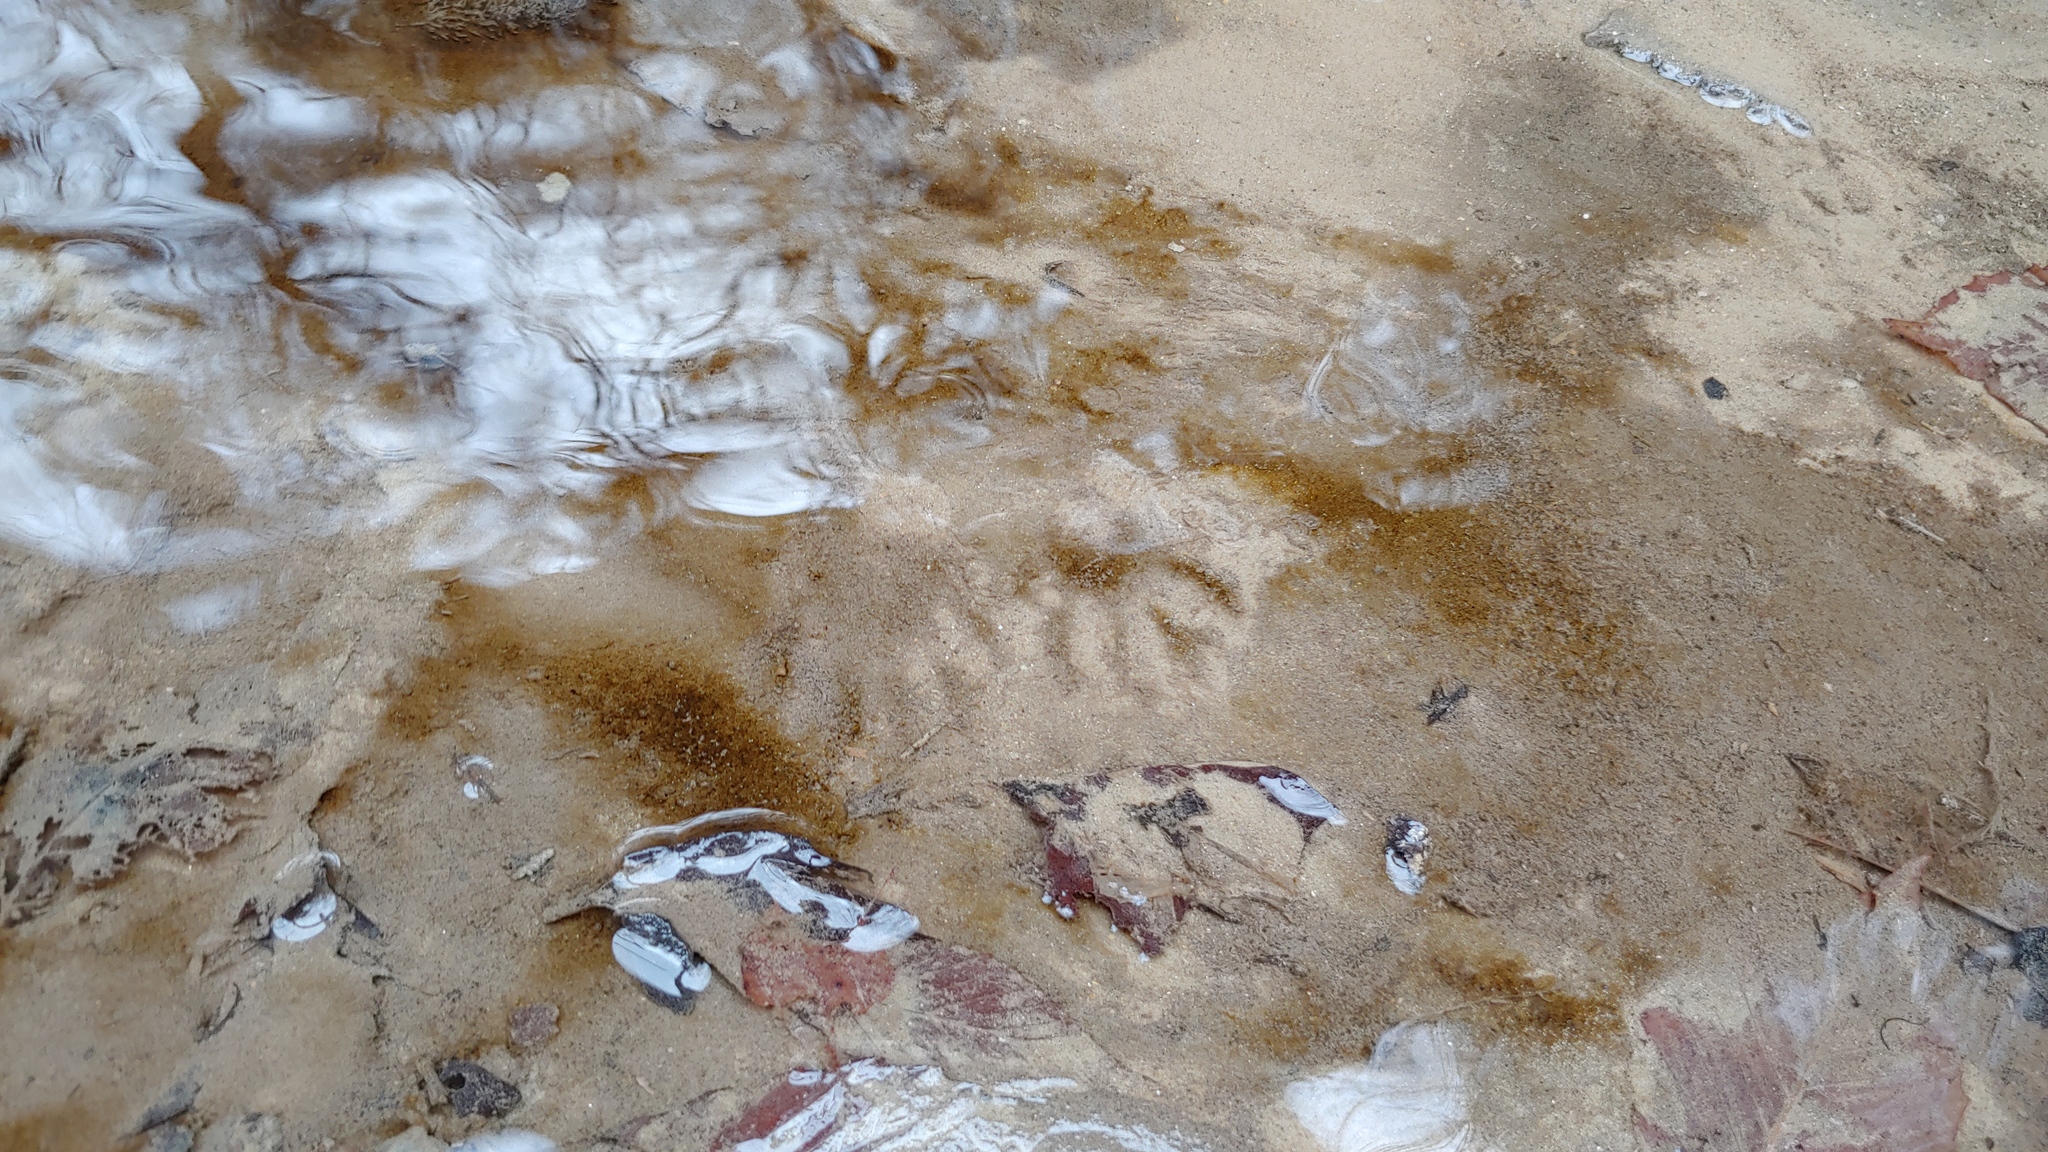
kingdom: Animalia
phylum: Chordata
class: Mammalia
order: Carnivora
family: Procyonidae
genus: Procyon
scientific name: Procyon lotor
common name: Raccoon
